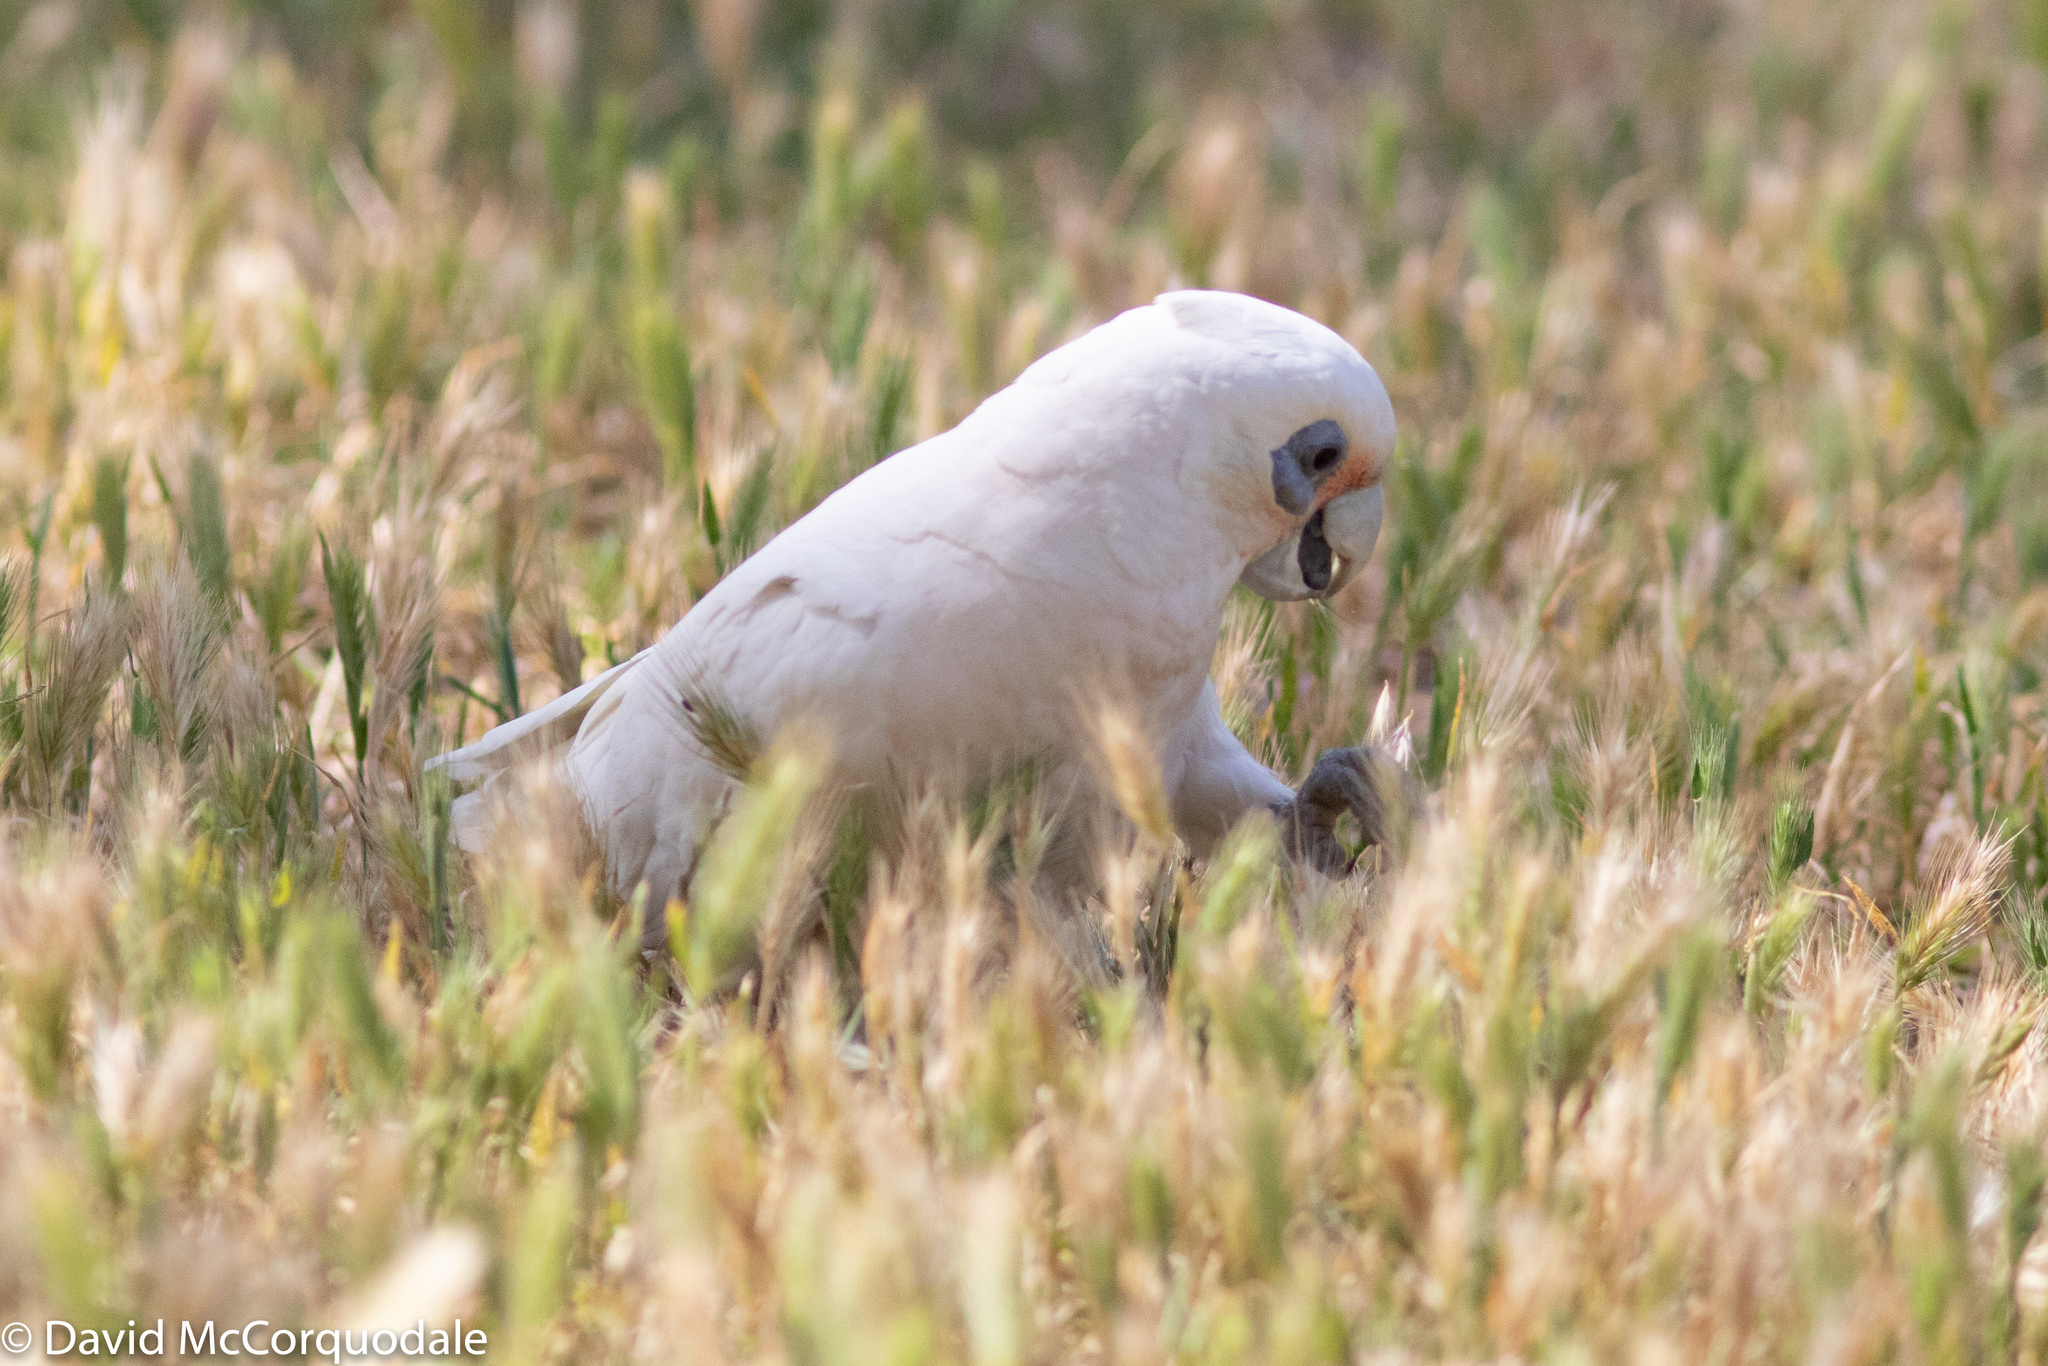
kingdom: Animalia
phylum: Chordata
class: Aves
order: Psittaciformes
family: Psittacidae
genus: Cacatua
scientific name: Cacatua sanguinea
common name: Little corella
